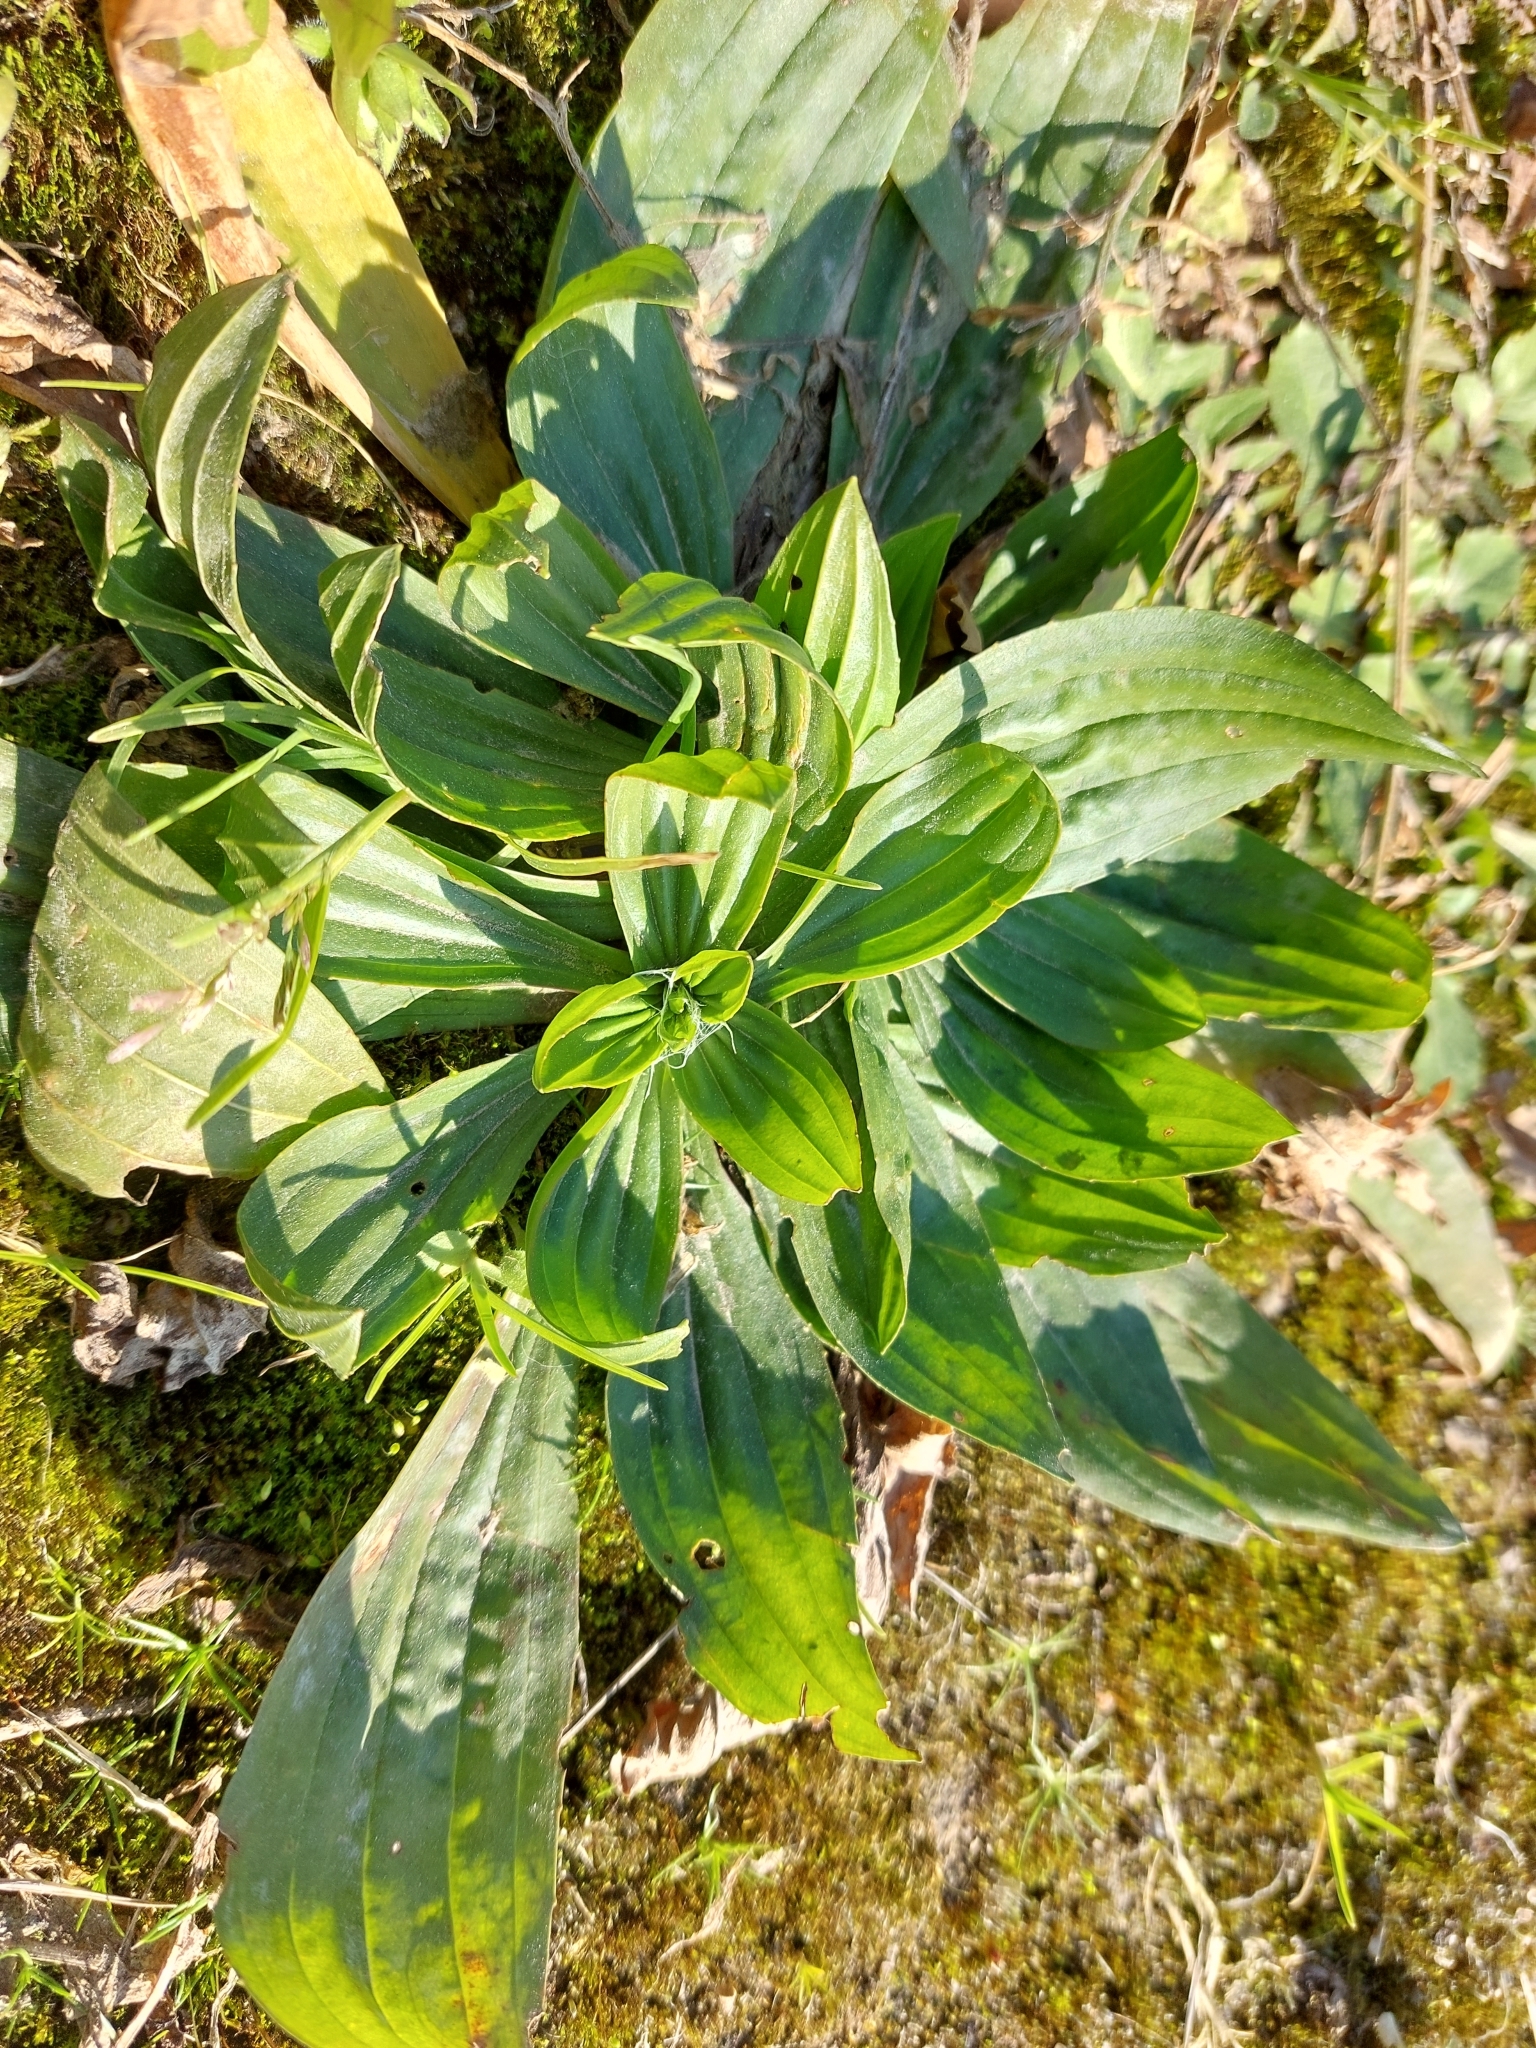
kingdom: Plantae
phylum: Tracheophyta
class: Magnoliopsida
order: Lamiales
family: Plantaginaceae
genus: Plantago
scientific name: Plantago lanceolata
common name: Ribwort plantain
